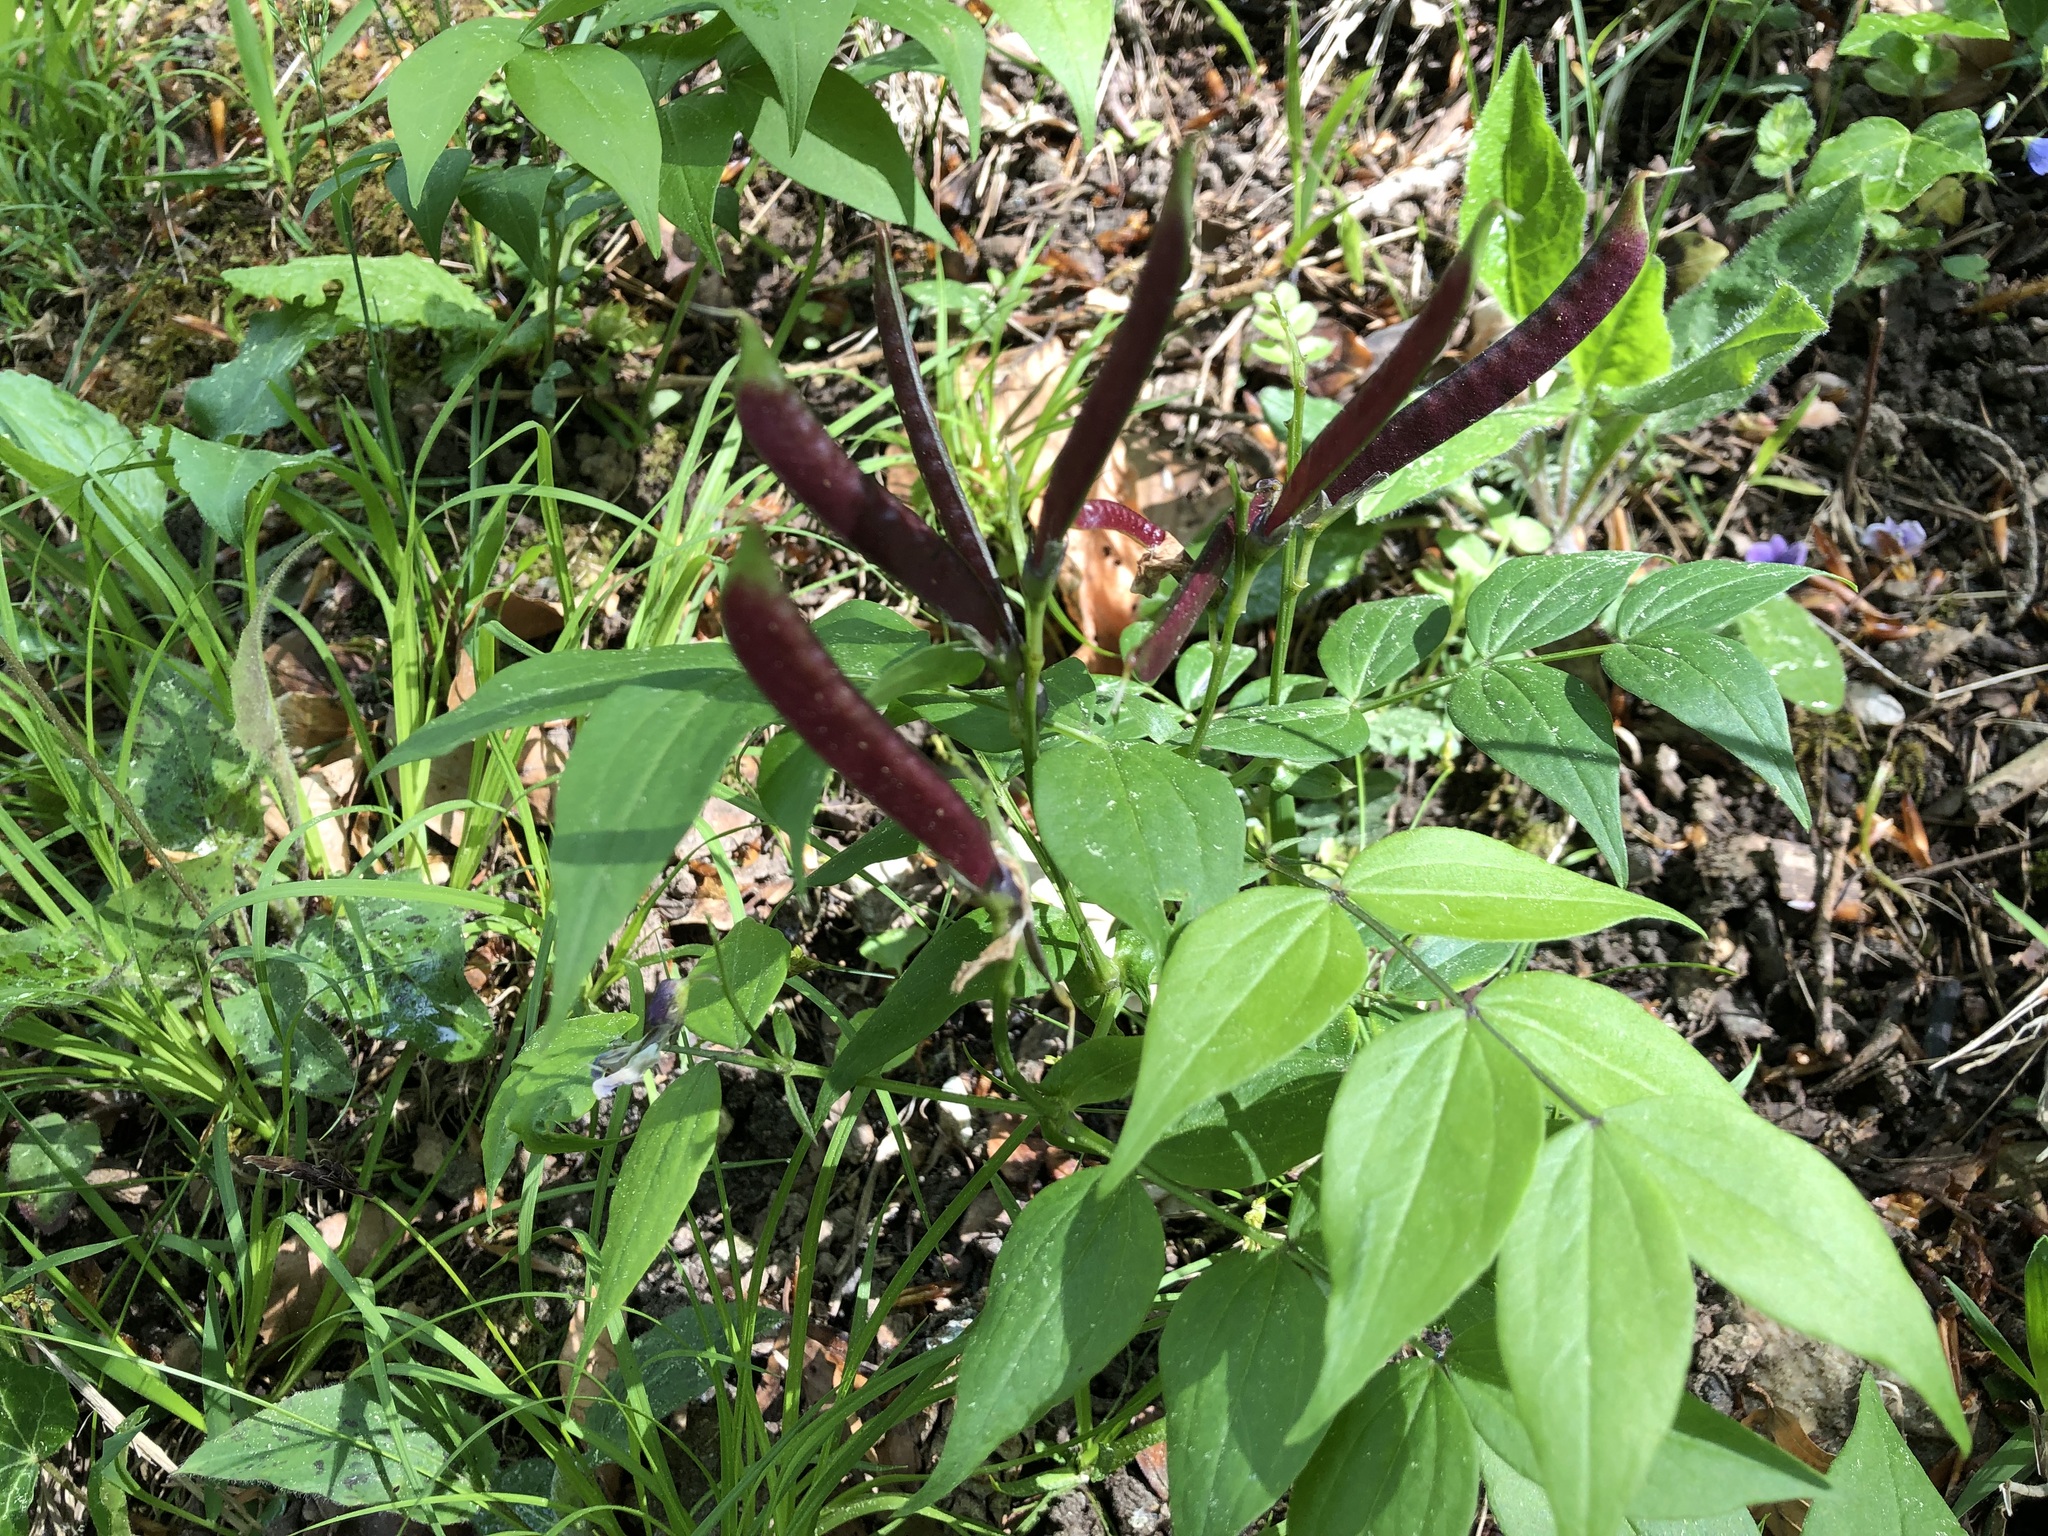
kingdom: Plantae
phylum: Tracheophyta
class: Magnoliopsida
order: Fabales
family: Fabaceae
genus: Lathyrus
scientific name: Lathyrus vernus
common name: Spring pea
